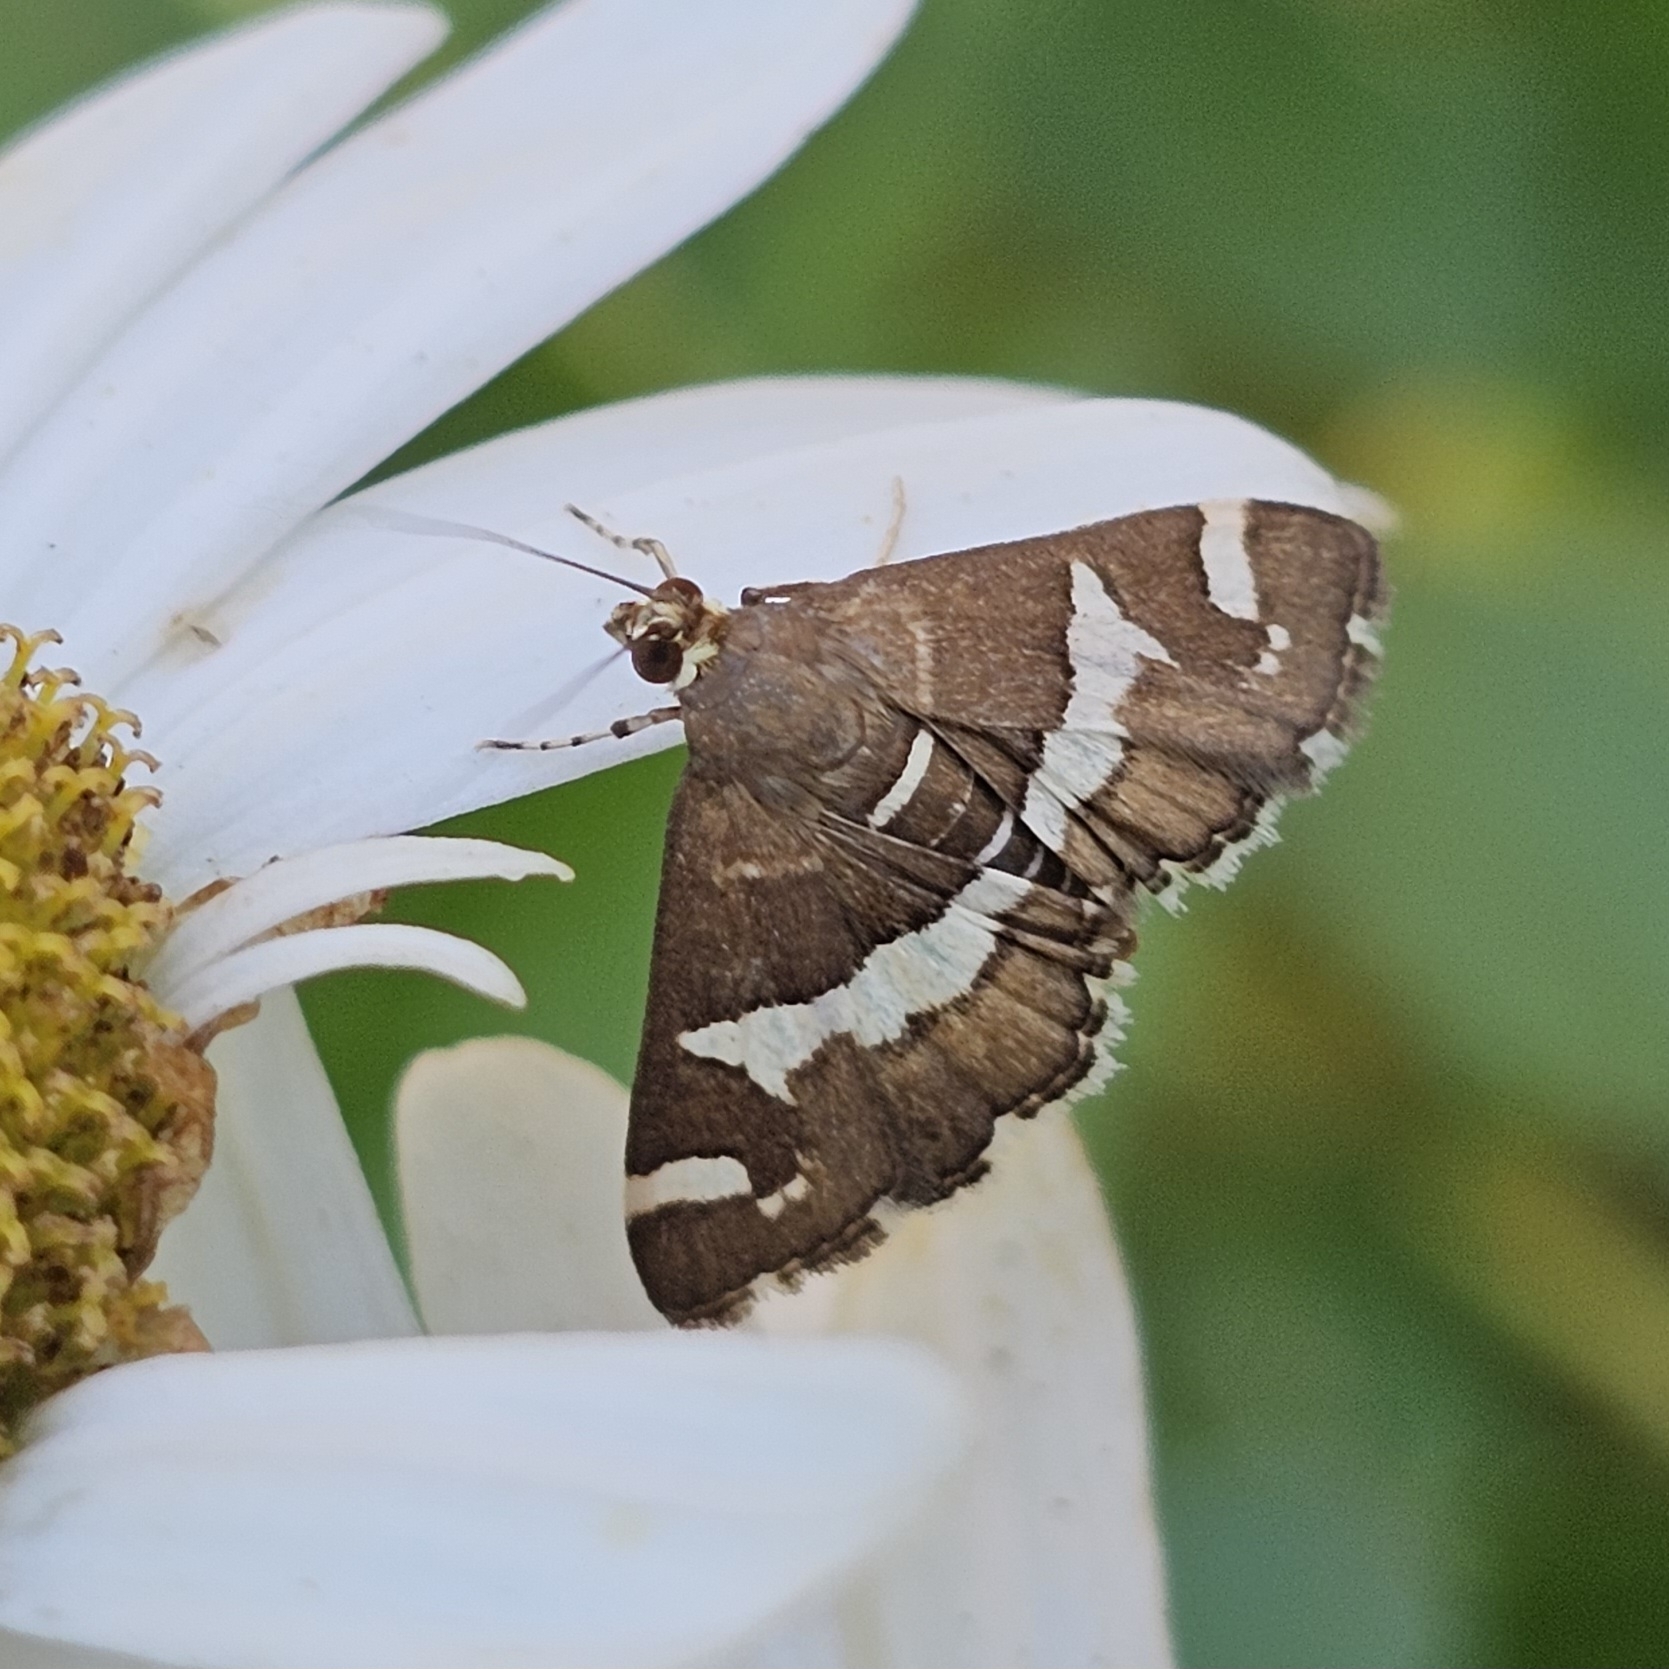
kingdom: Animalia
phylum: Arthropoda
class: Insecta
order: Lepidoptera
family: Crambidae
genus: Spoladea
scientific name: Spoladea recurvalis
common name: Beet webworm moth
